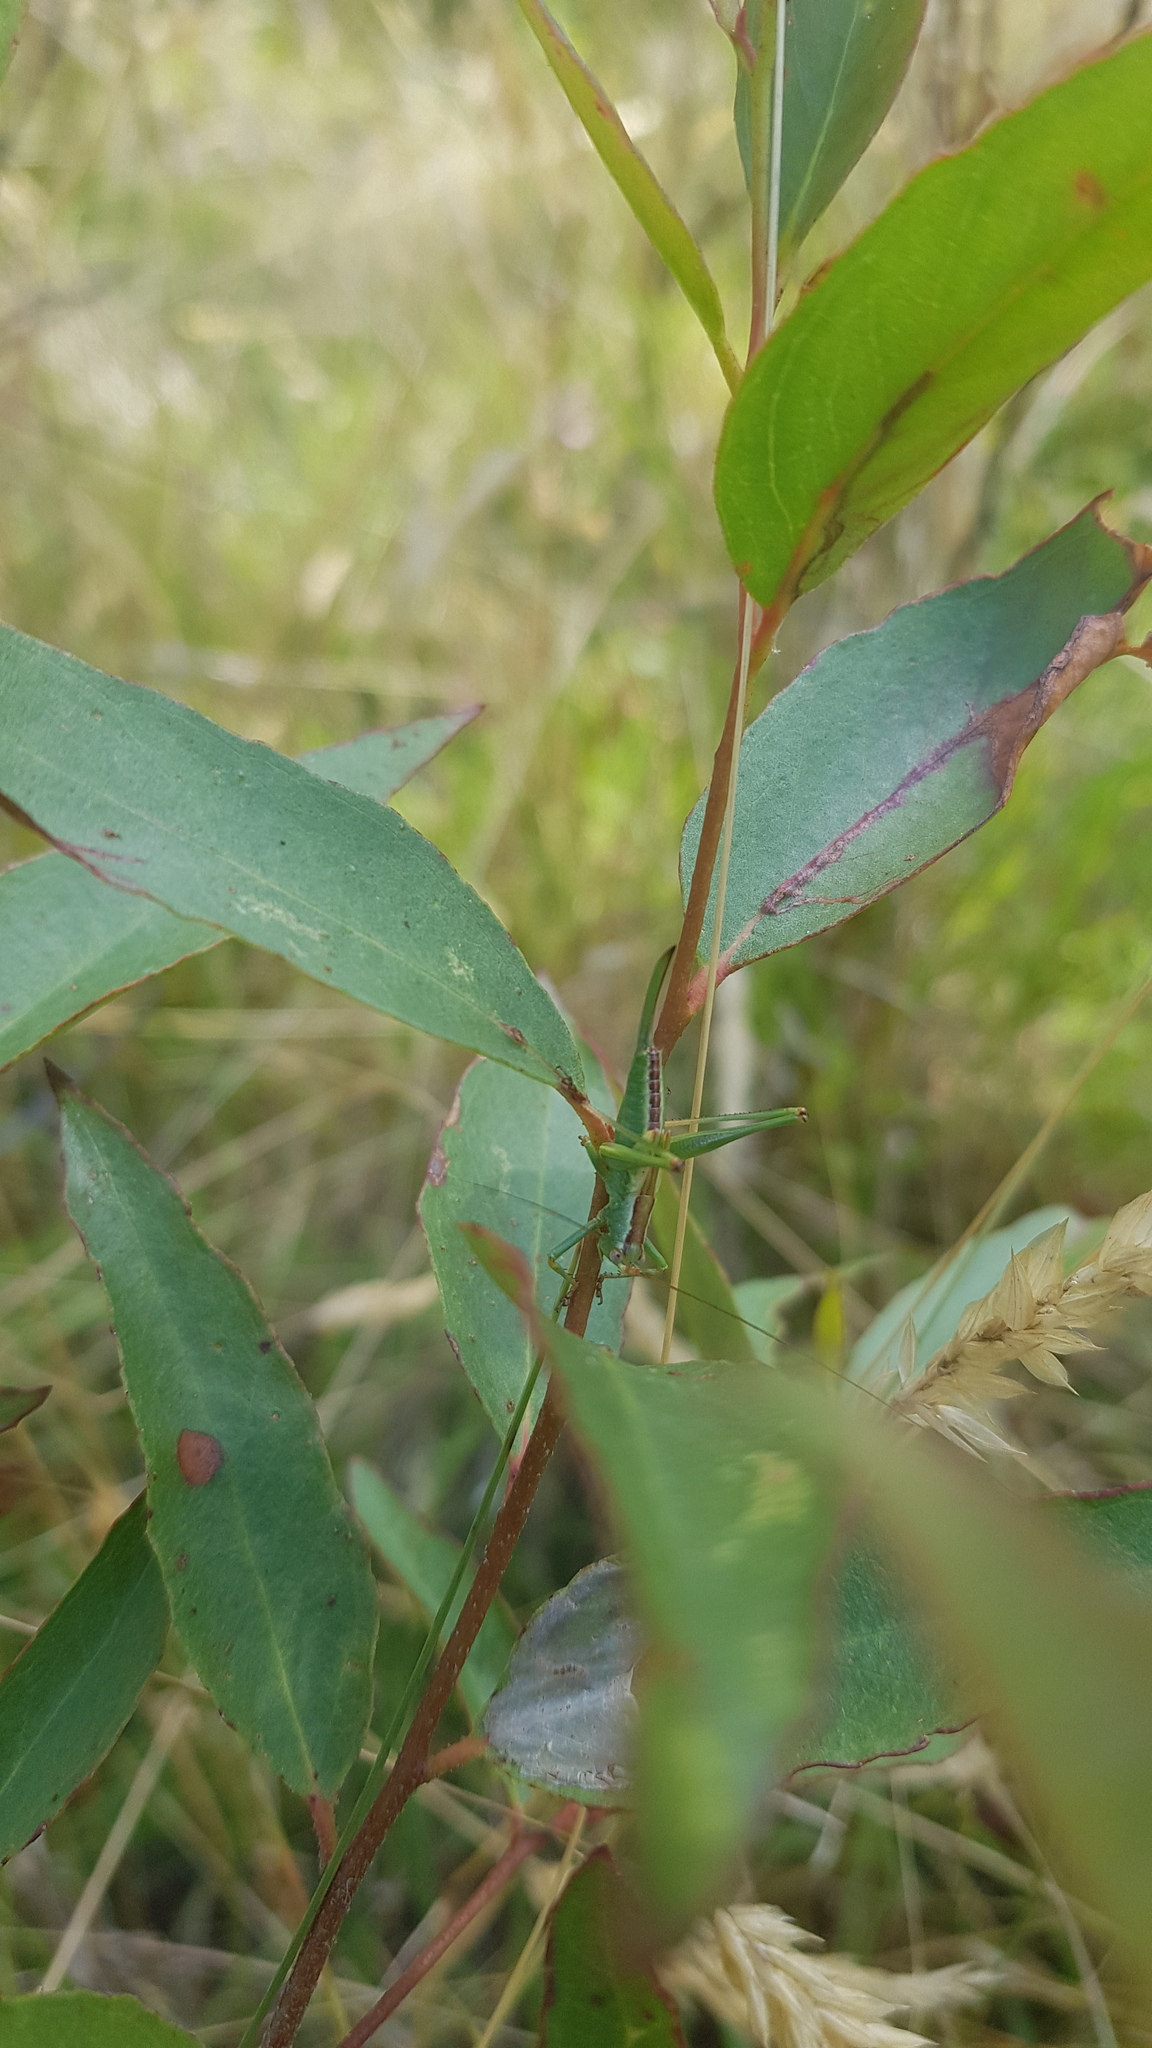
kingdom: Animalia
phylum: Arthropoda
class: Insecta
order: Orthoptera
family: Tettigoniidae
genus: Conocephalomima
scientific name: Conocephalomima barameda
